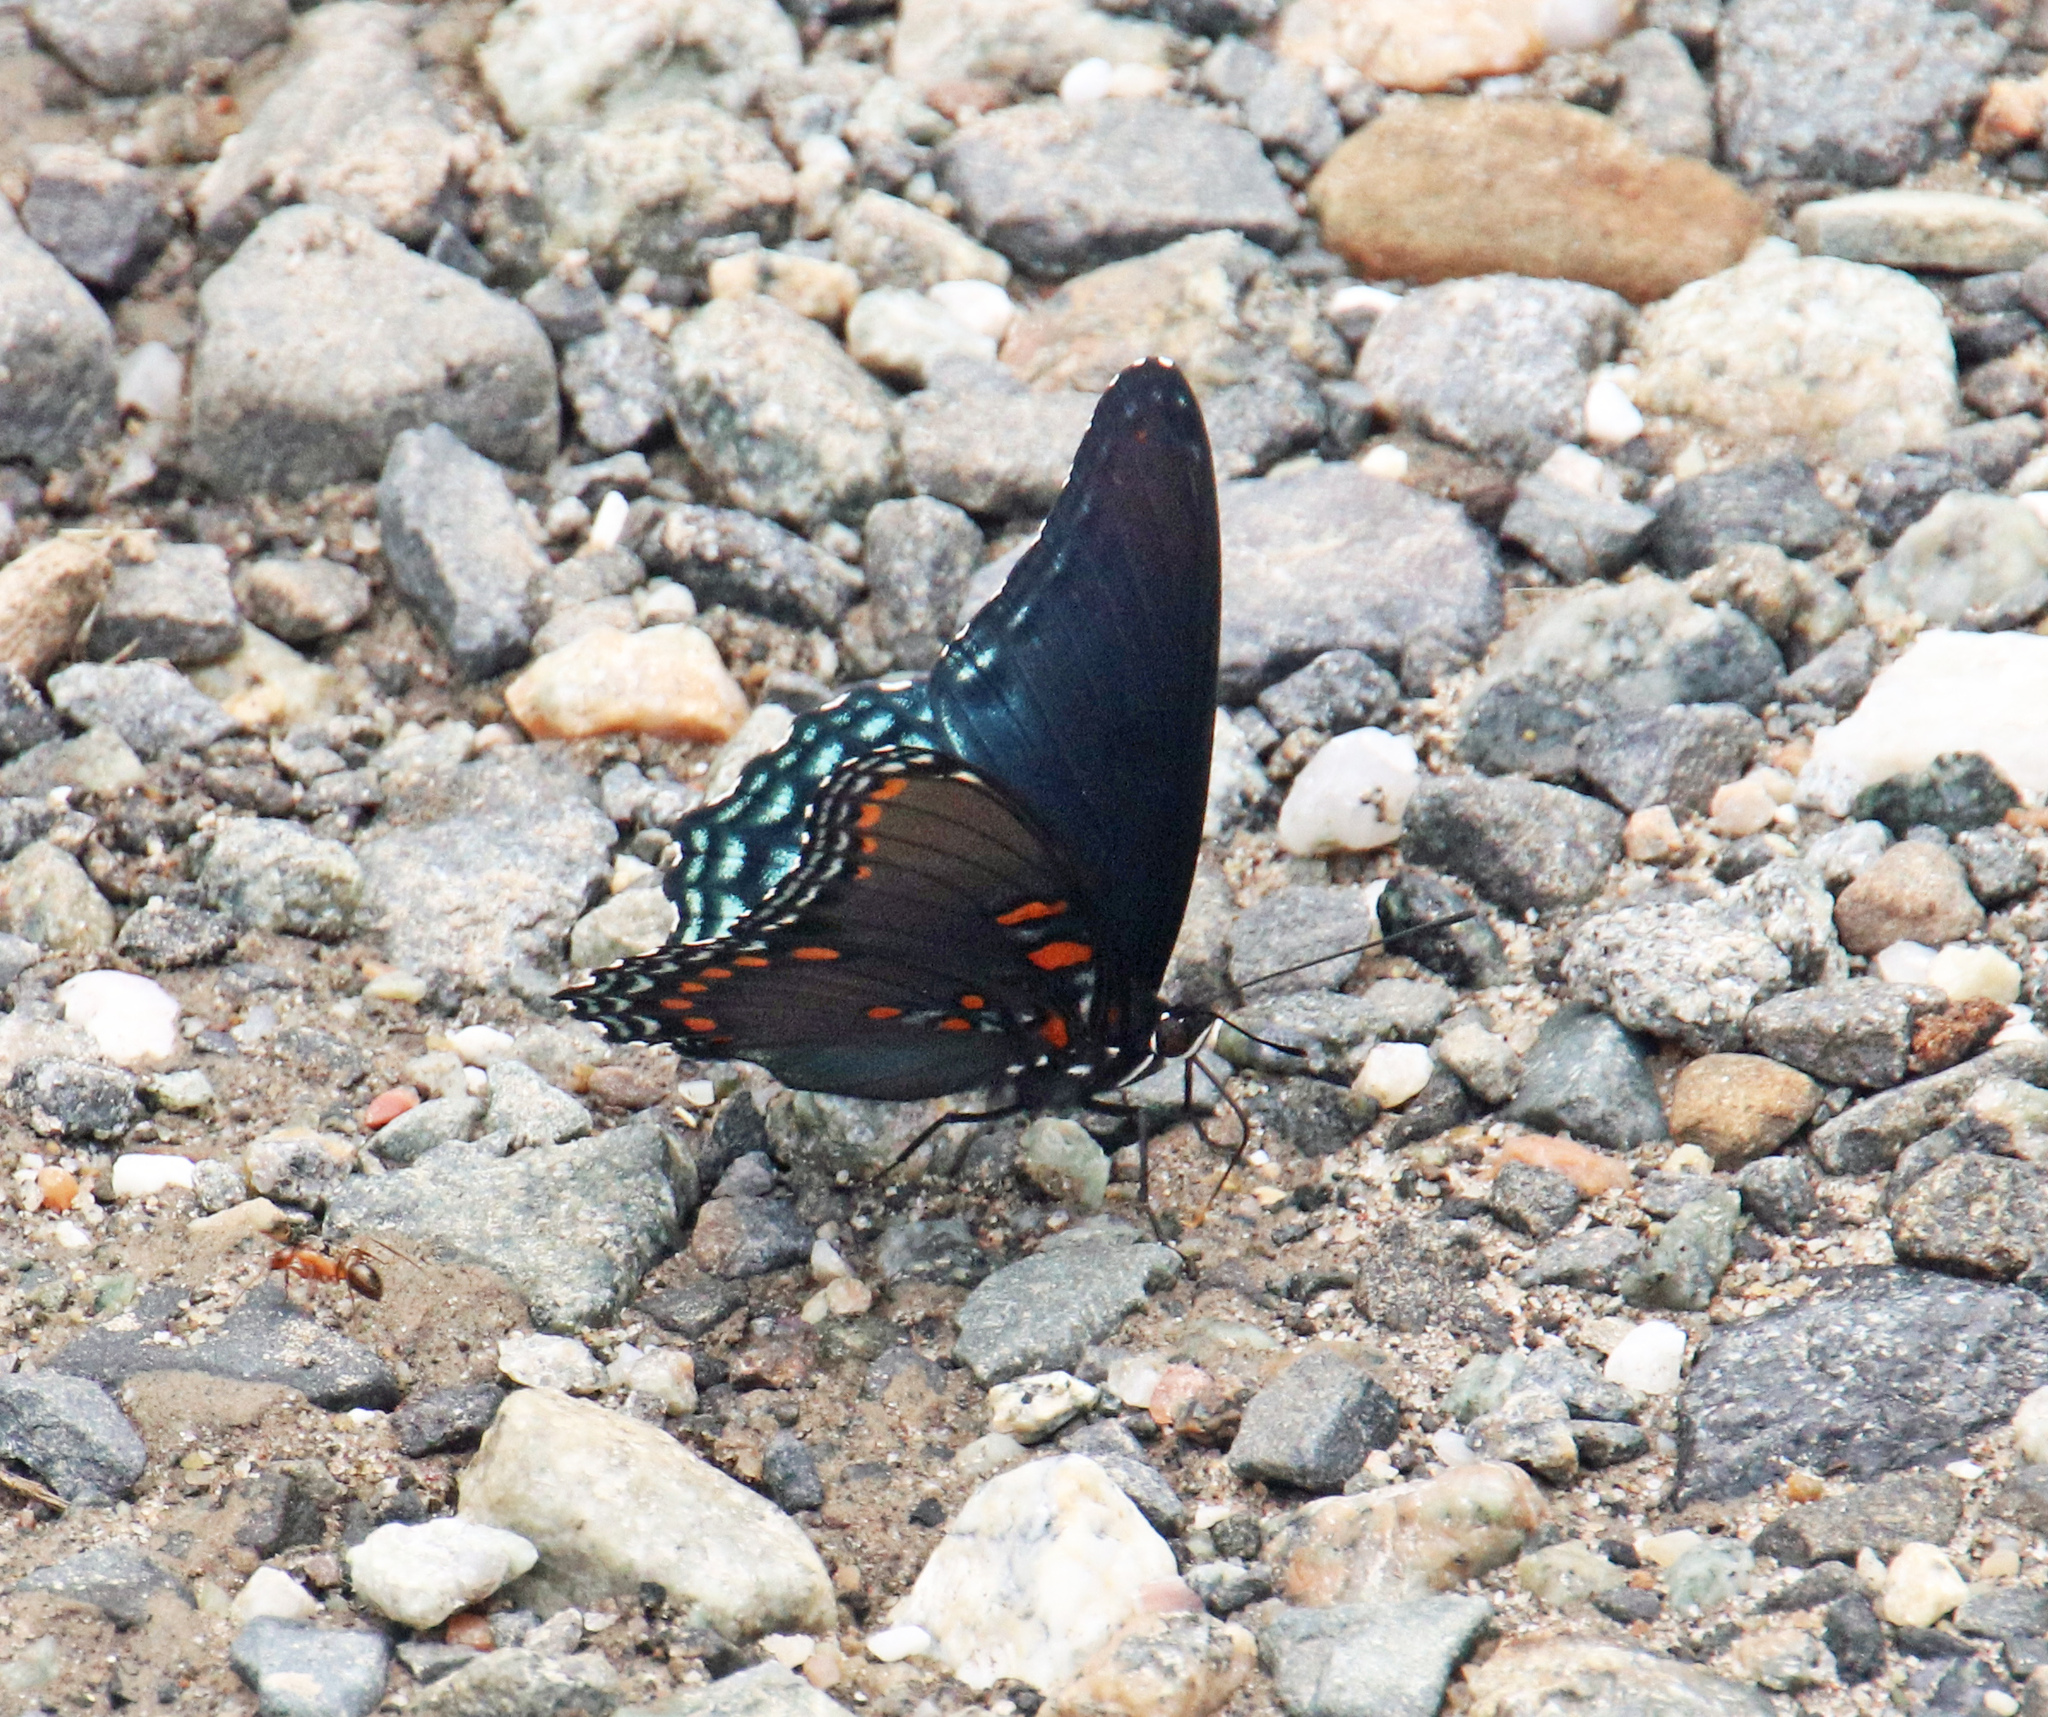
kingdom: Animalia
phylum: Arthropoda
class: Insecta
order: Lepidoptera
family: Nymphalidae
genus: Limenitis
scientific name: Limenitis arthemis
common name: Red-spotted admiral
